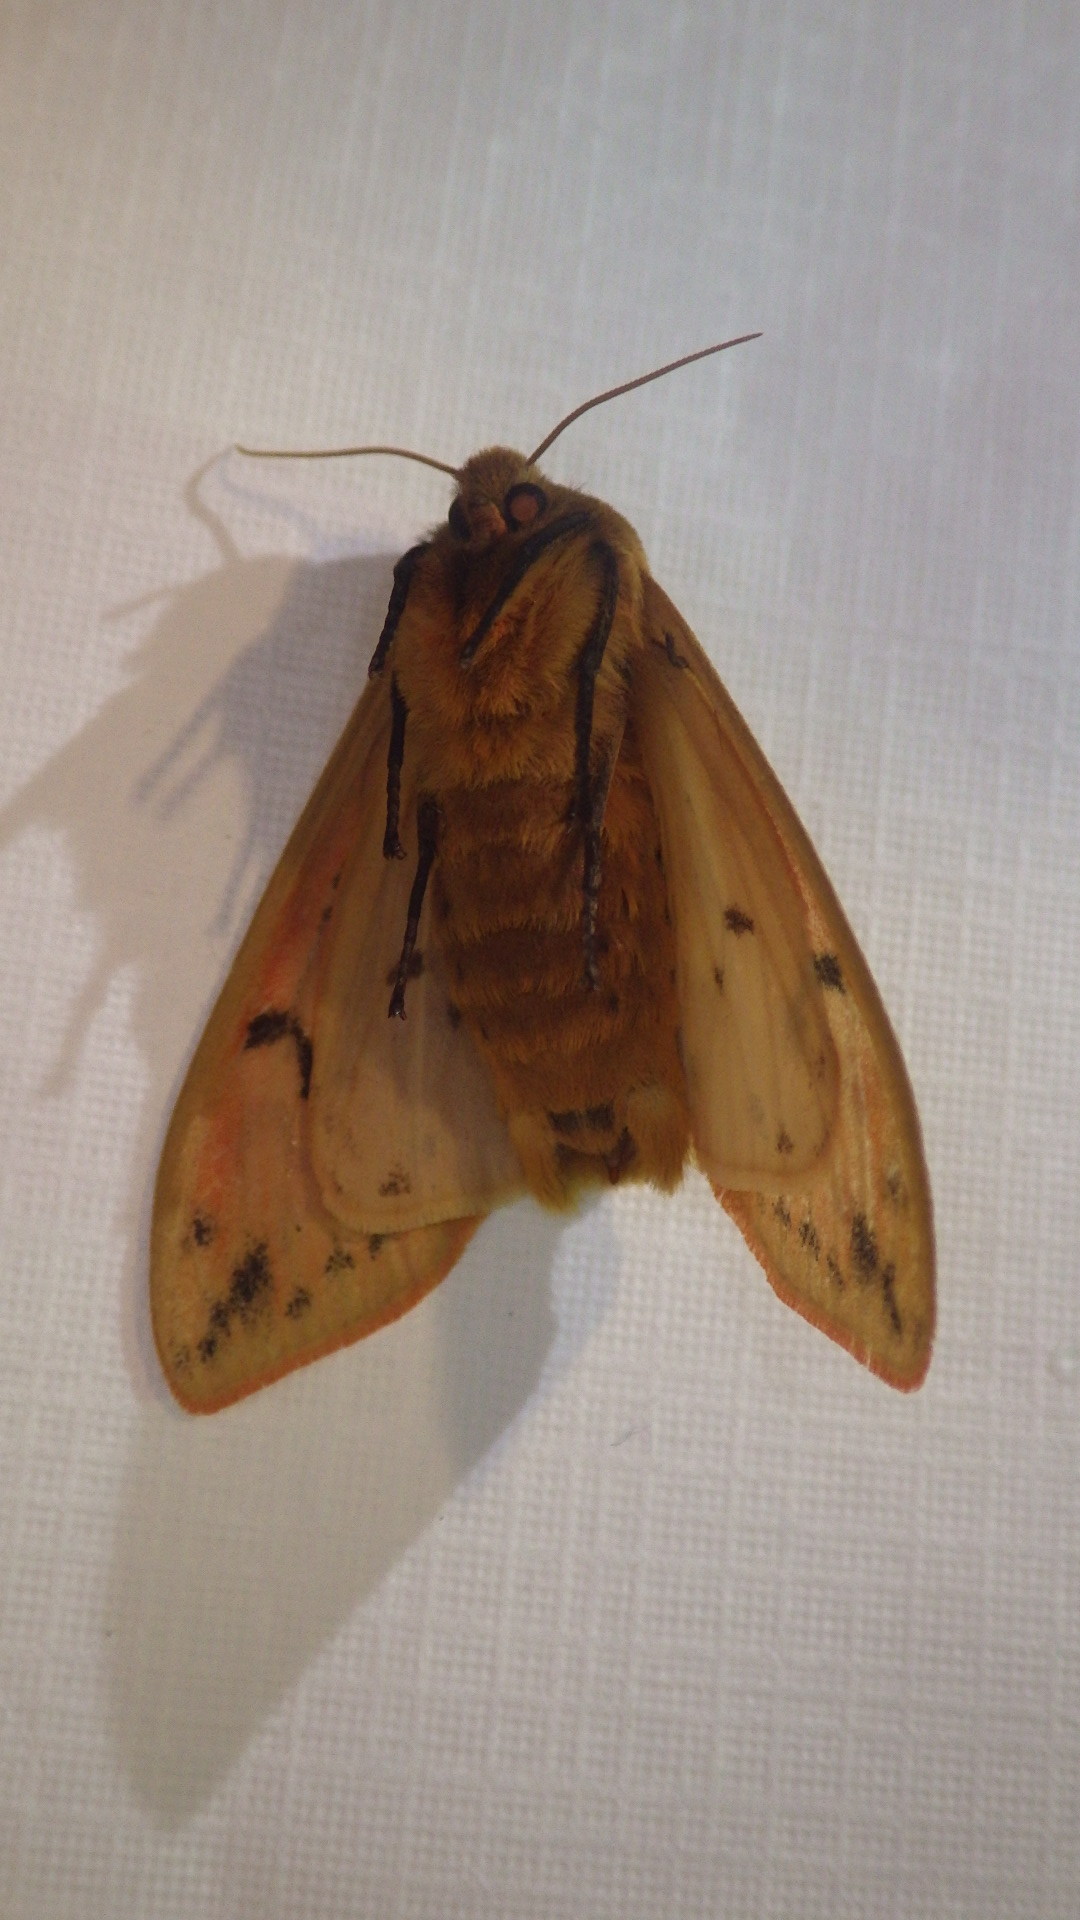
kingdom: Animalia
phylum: Arthropoda
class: Insecta
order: Lepidoptera
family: Erebidae
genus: Pyrrharctia
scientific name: Pyrrharctia isabella
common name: Isabella tiger moth
